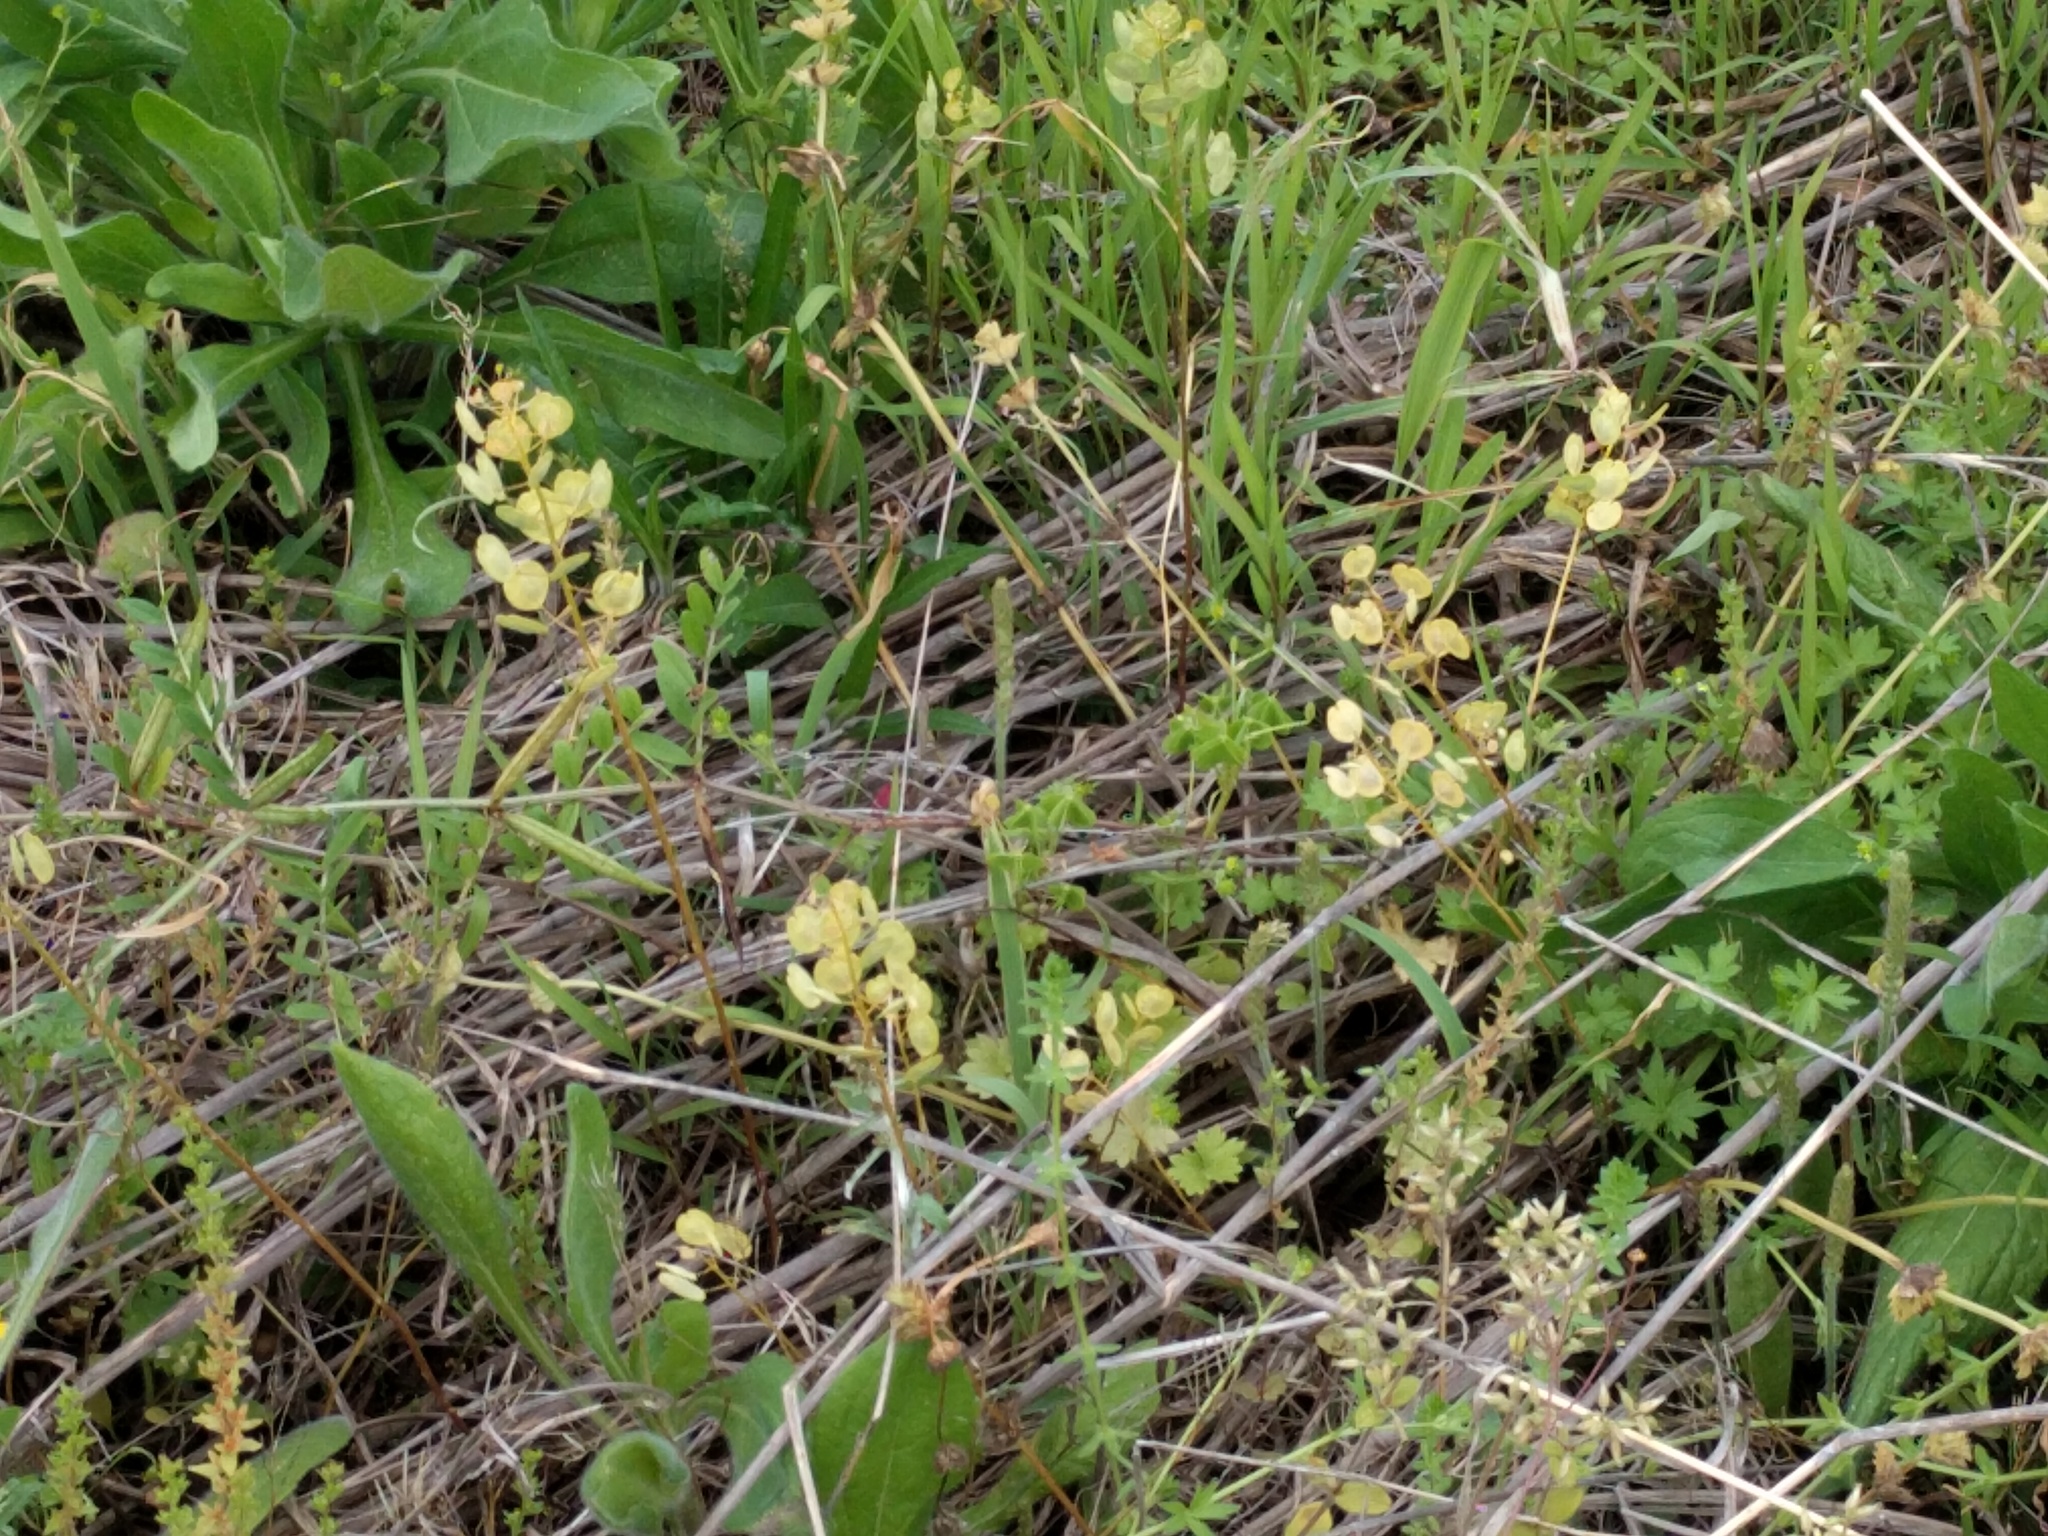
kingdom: Plantae
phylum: Tracheophyta
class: Magnoliopsida
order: Brassicales
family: Brassicaceae
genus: Lepidium
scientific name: Lepidium virginicum
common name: Least pepperwort
